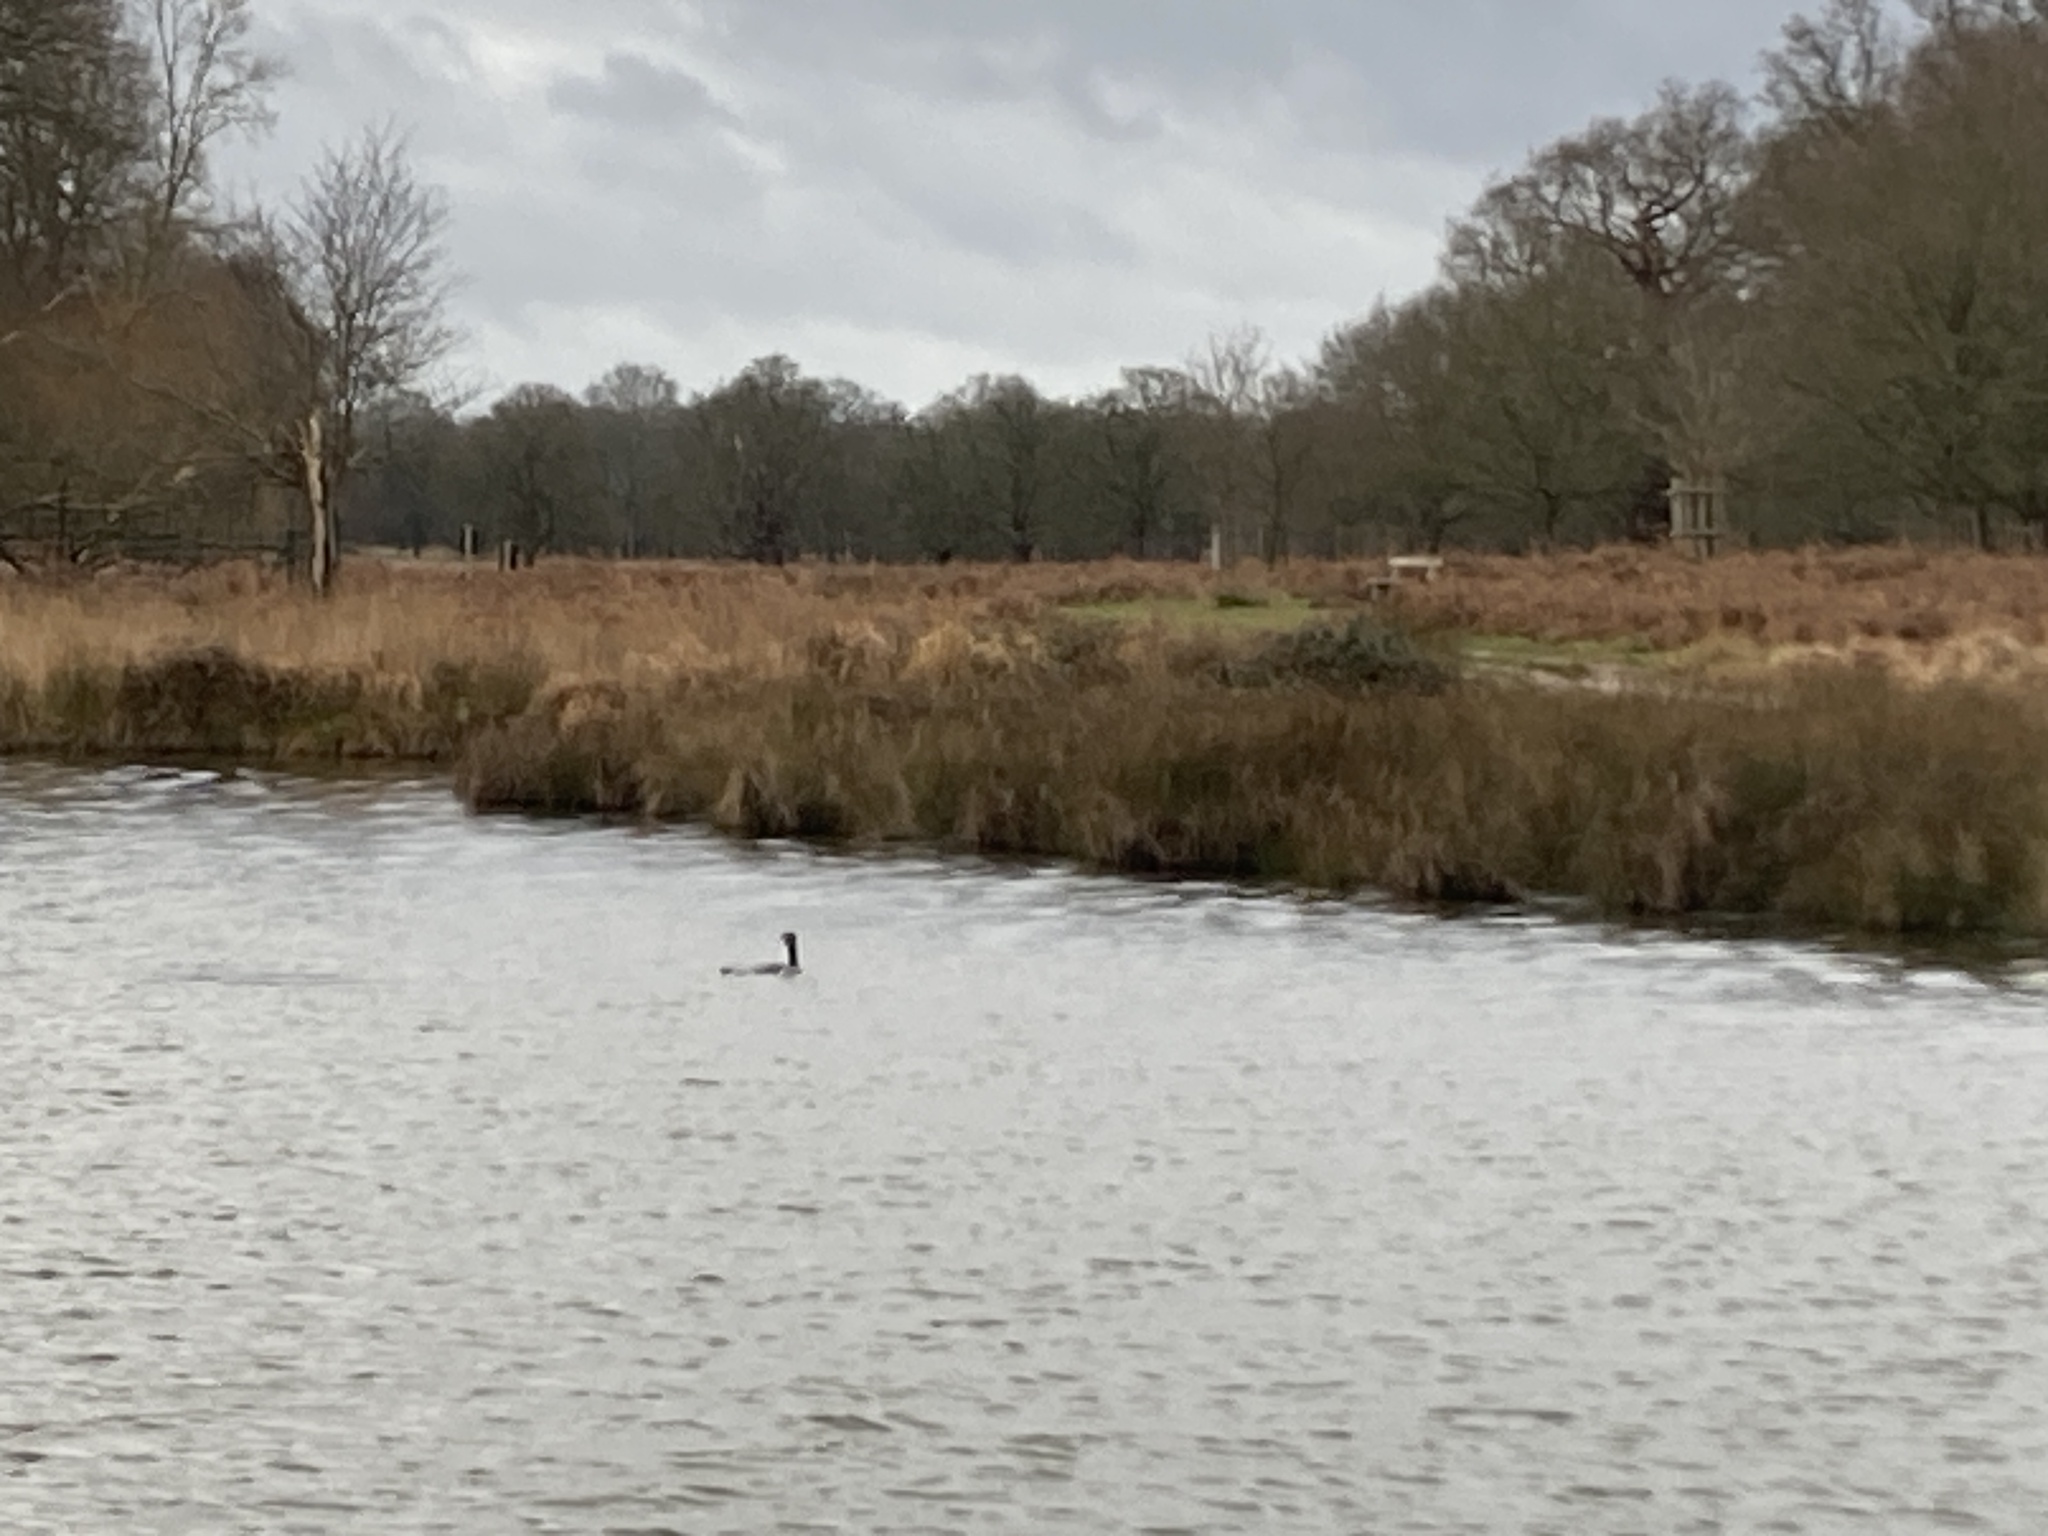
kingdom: Animalia
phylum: Chordata
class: Aves
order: Suliformes
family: Phalacrocoracidae
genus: Phalacrocorax
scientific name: Phalacrocorax carbo
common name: Great cormorant
